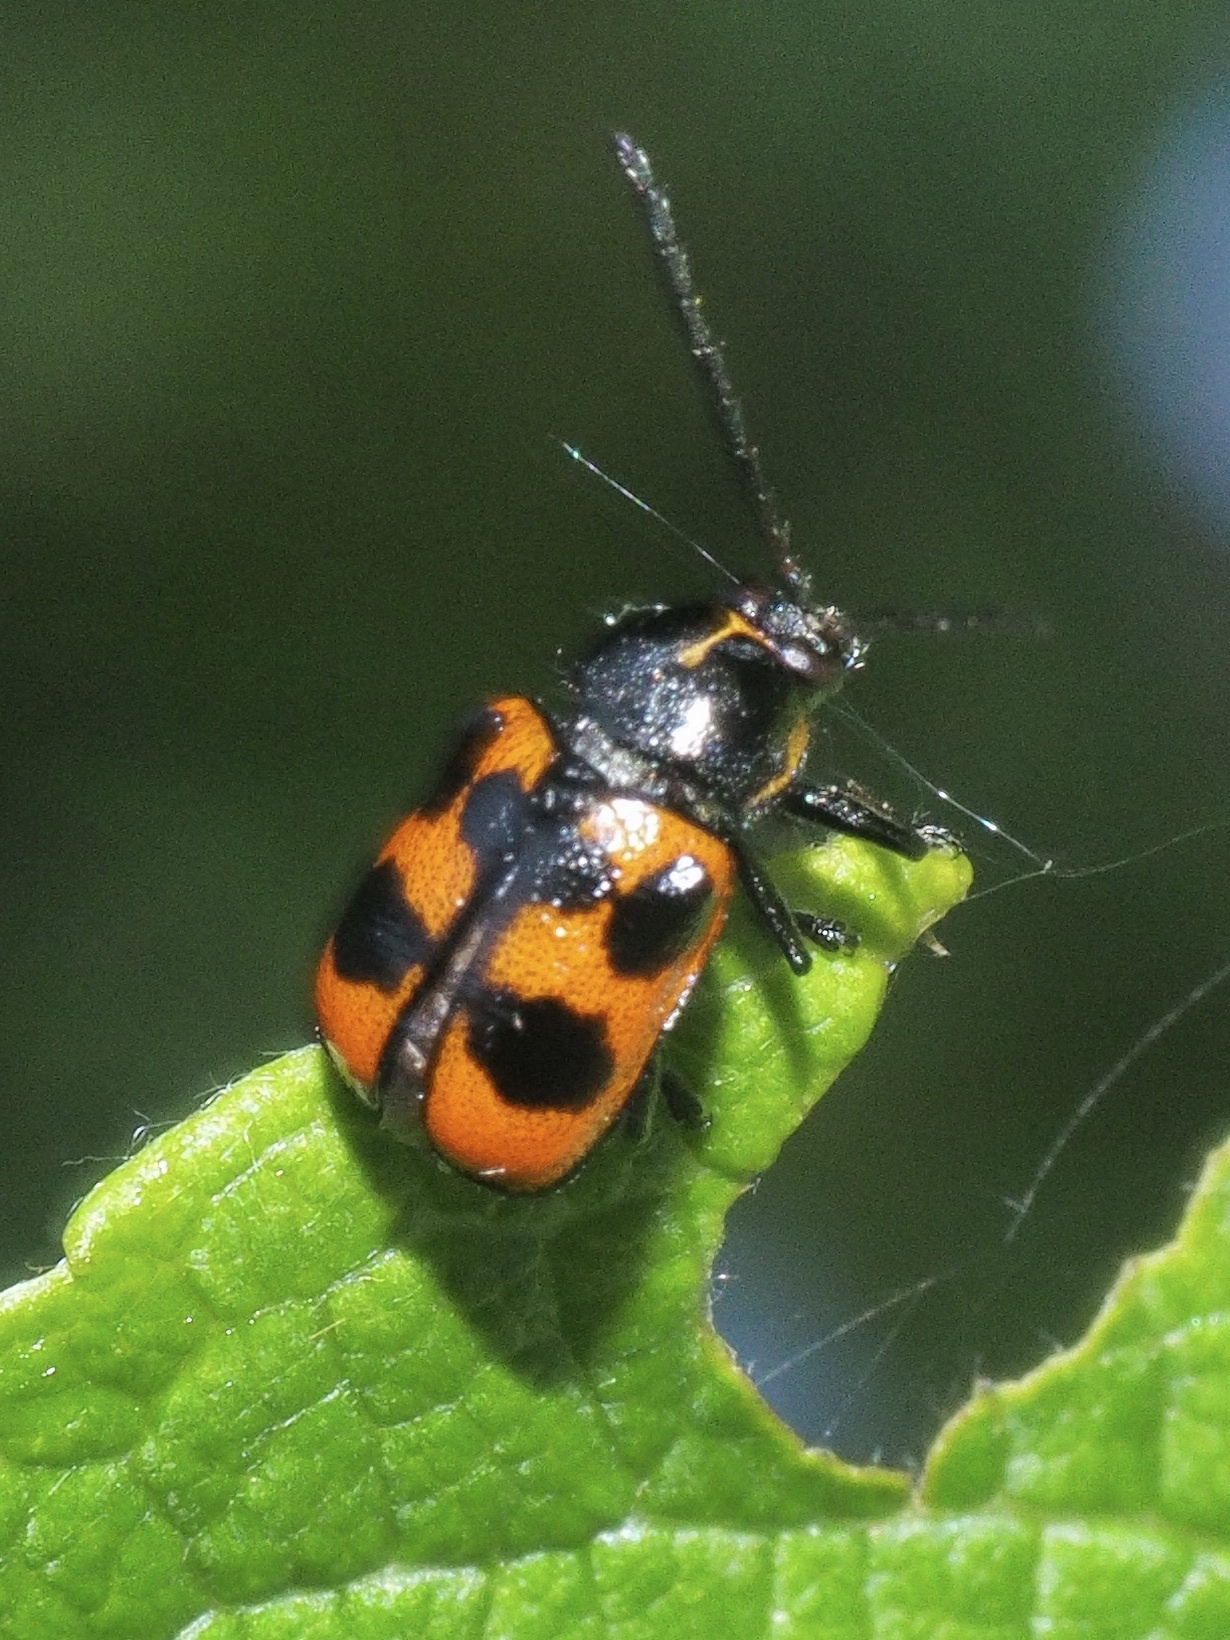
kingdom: Animalia
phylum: Arthropoda
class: Insecta
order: Coleoptera
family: Chrysomelidae
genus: Cryptocephalus
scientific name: Cryptocephalus quinquepunctatus
